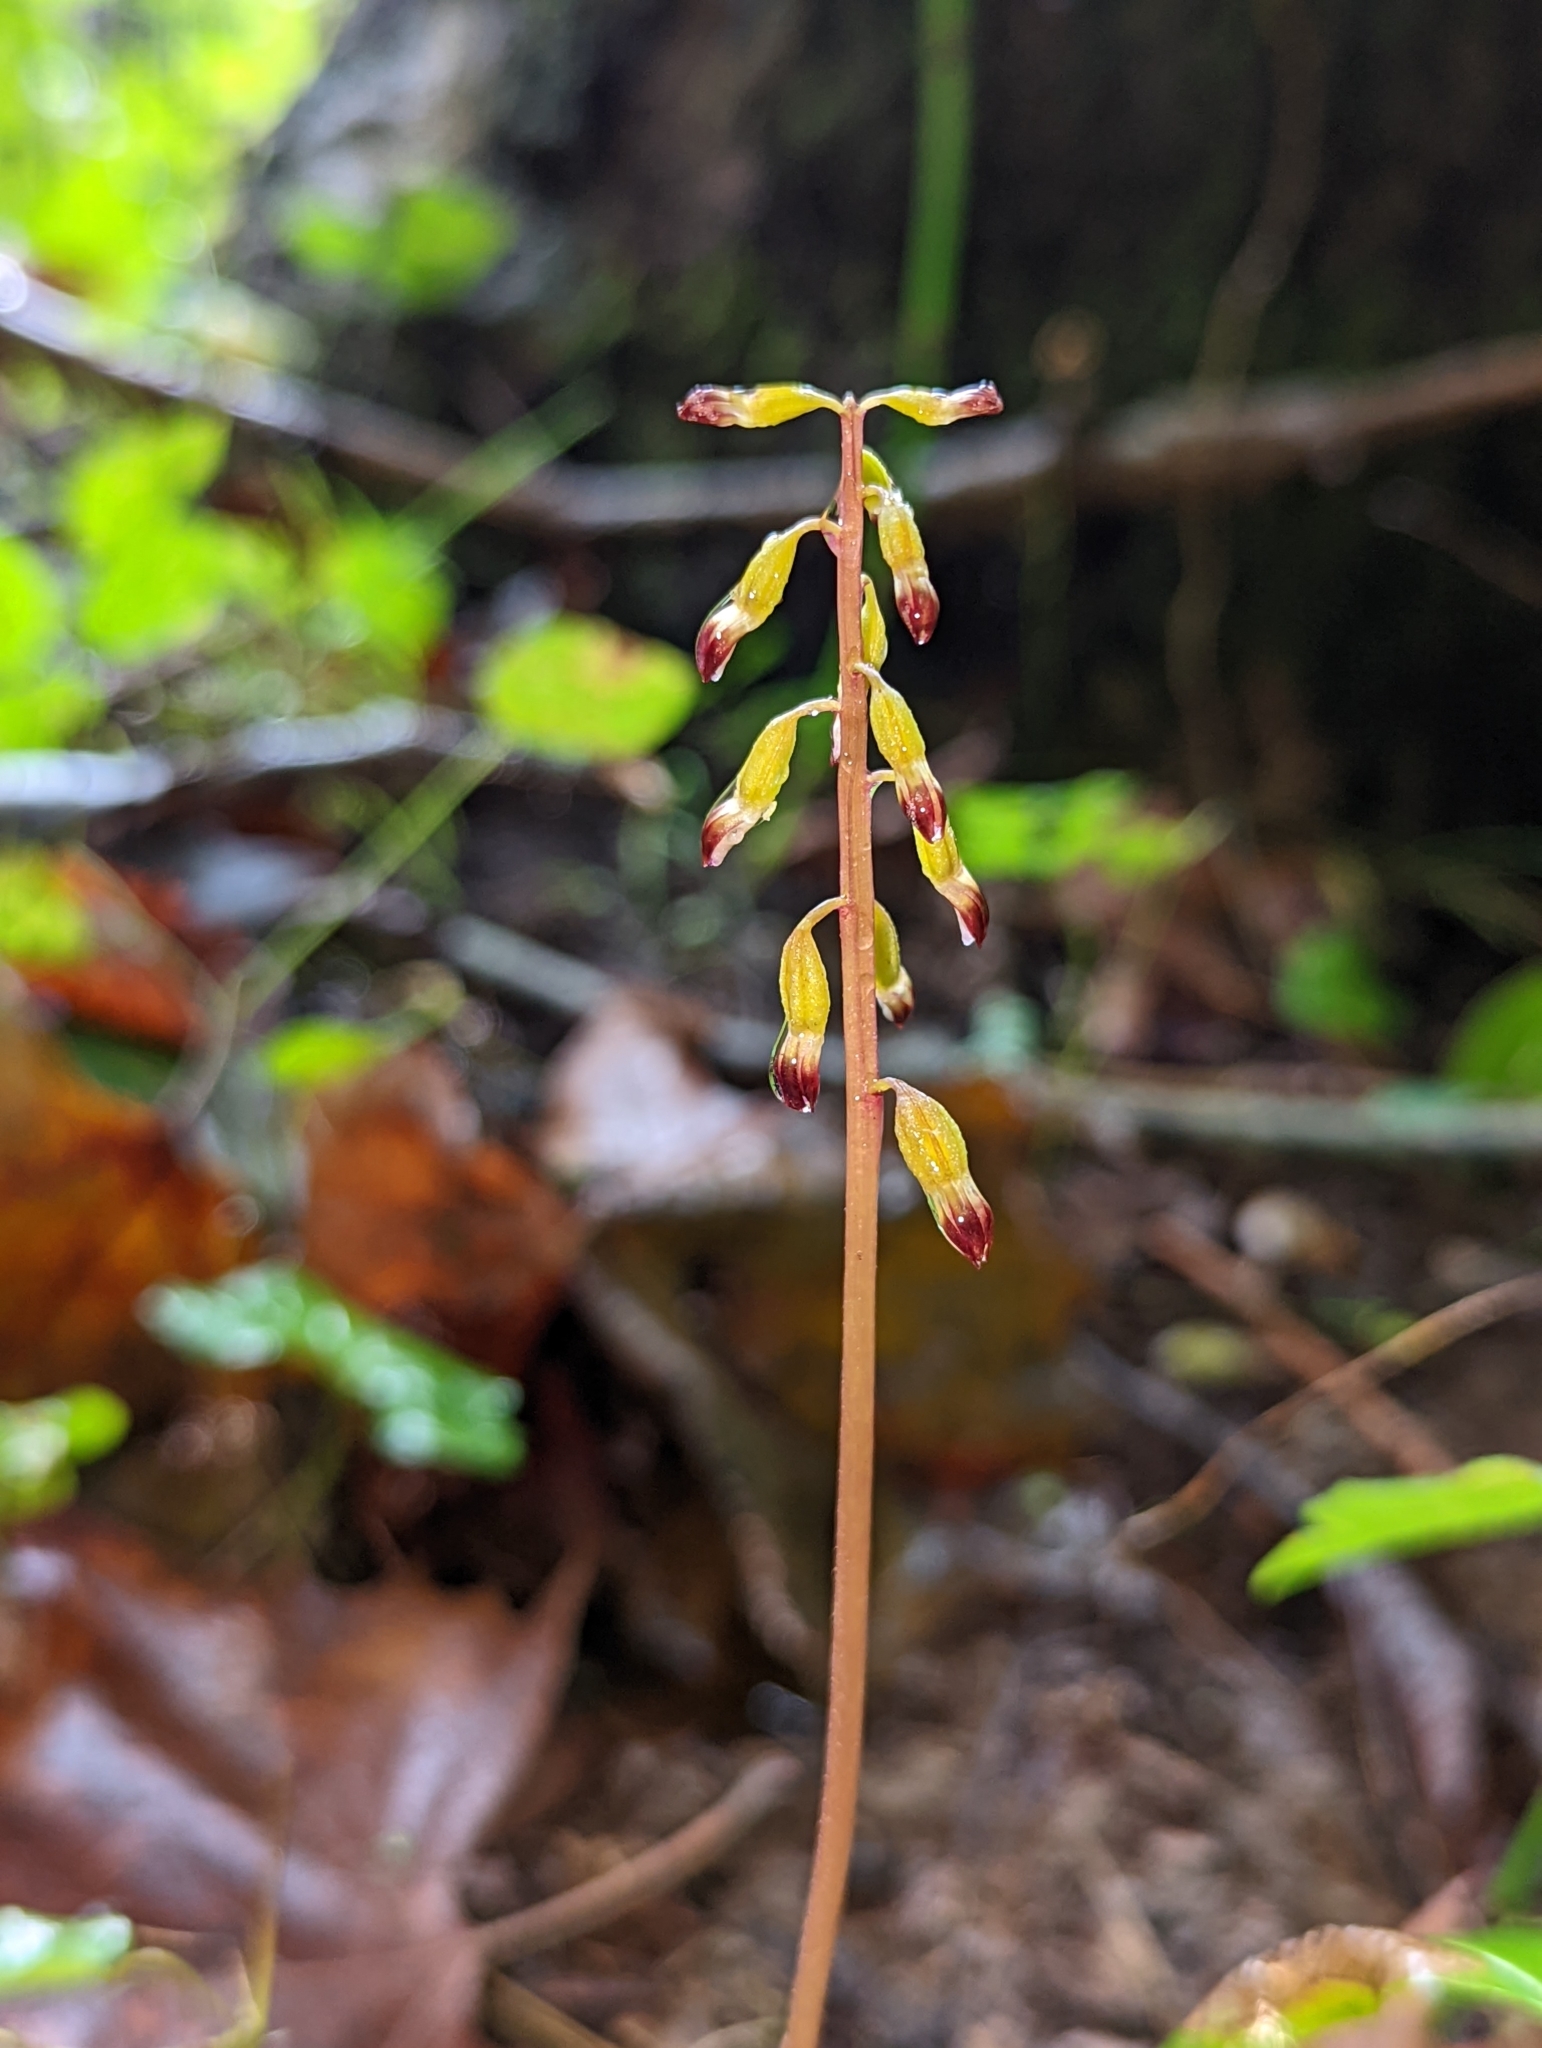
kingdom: Plantae
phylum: Tracheophyta
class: Liliopsida
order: Asparagales
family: Orchidaceae
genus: Corallorhiza
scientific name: Corallorhiza odontorhiza
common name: Autumn coralroot
